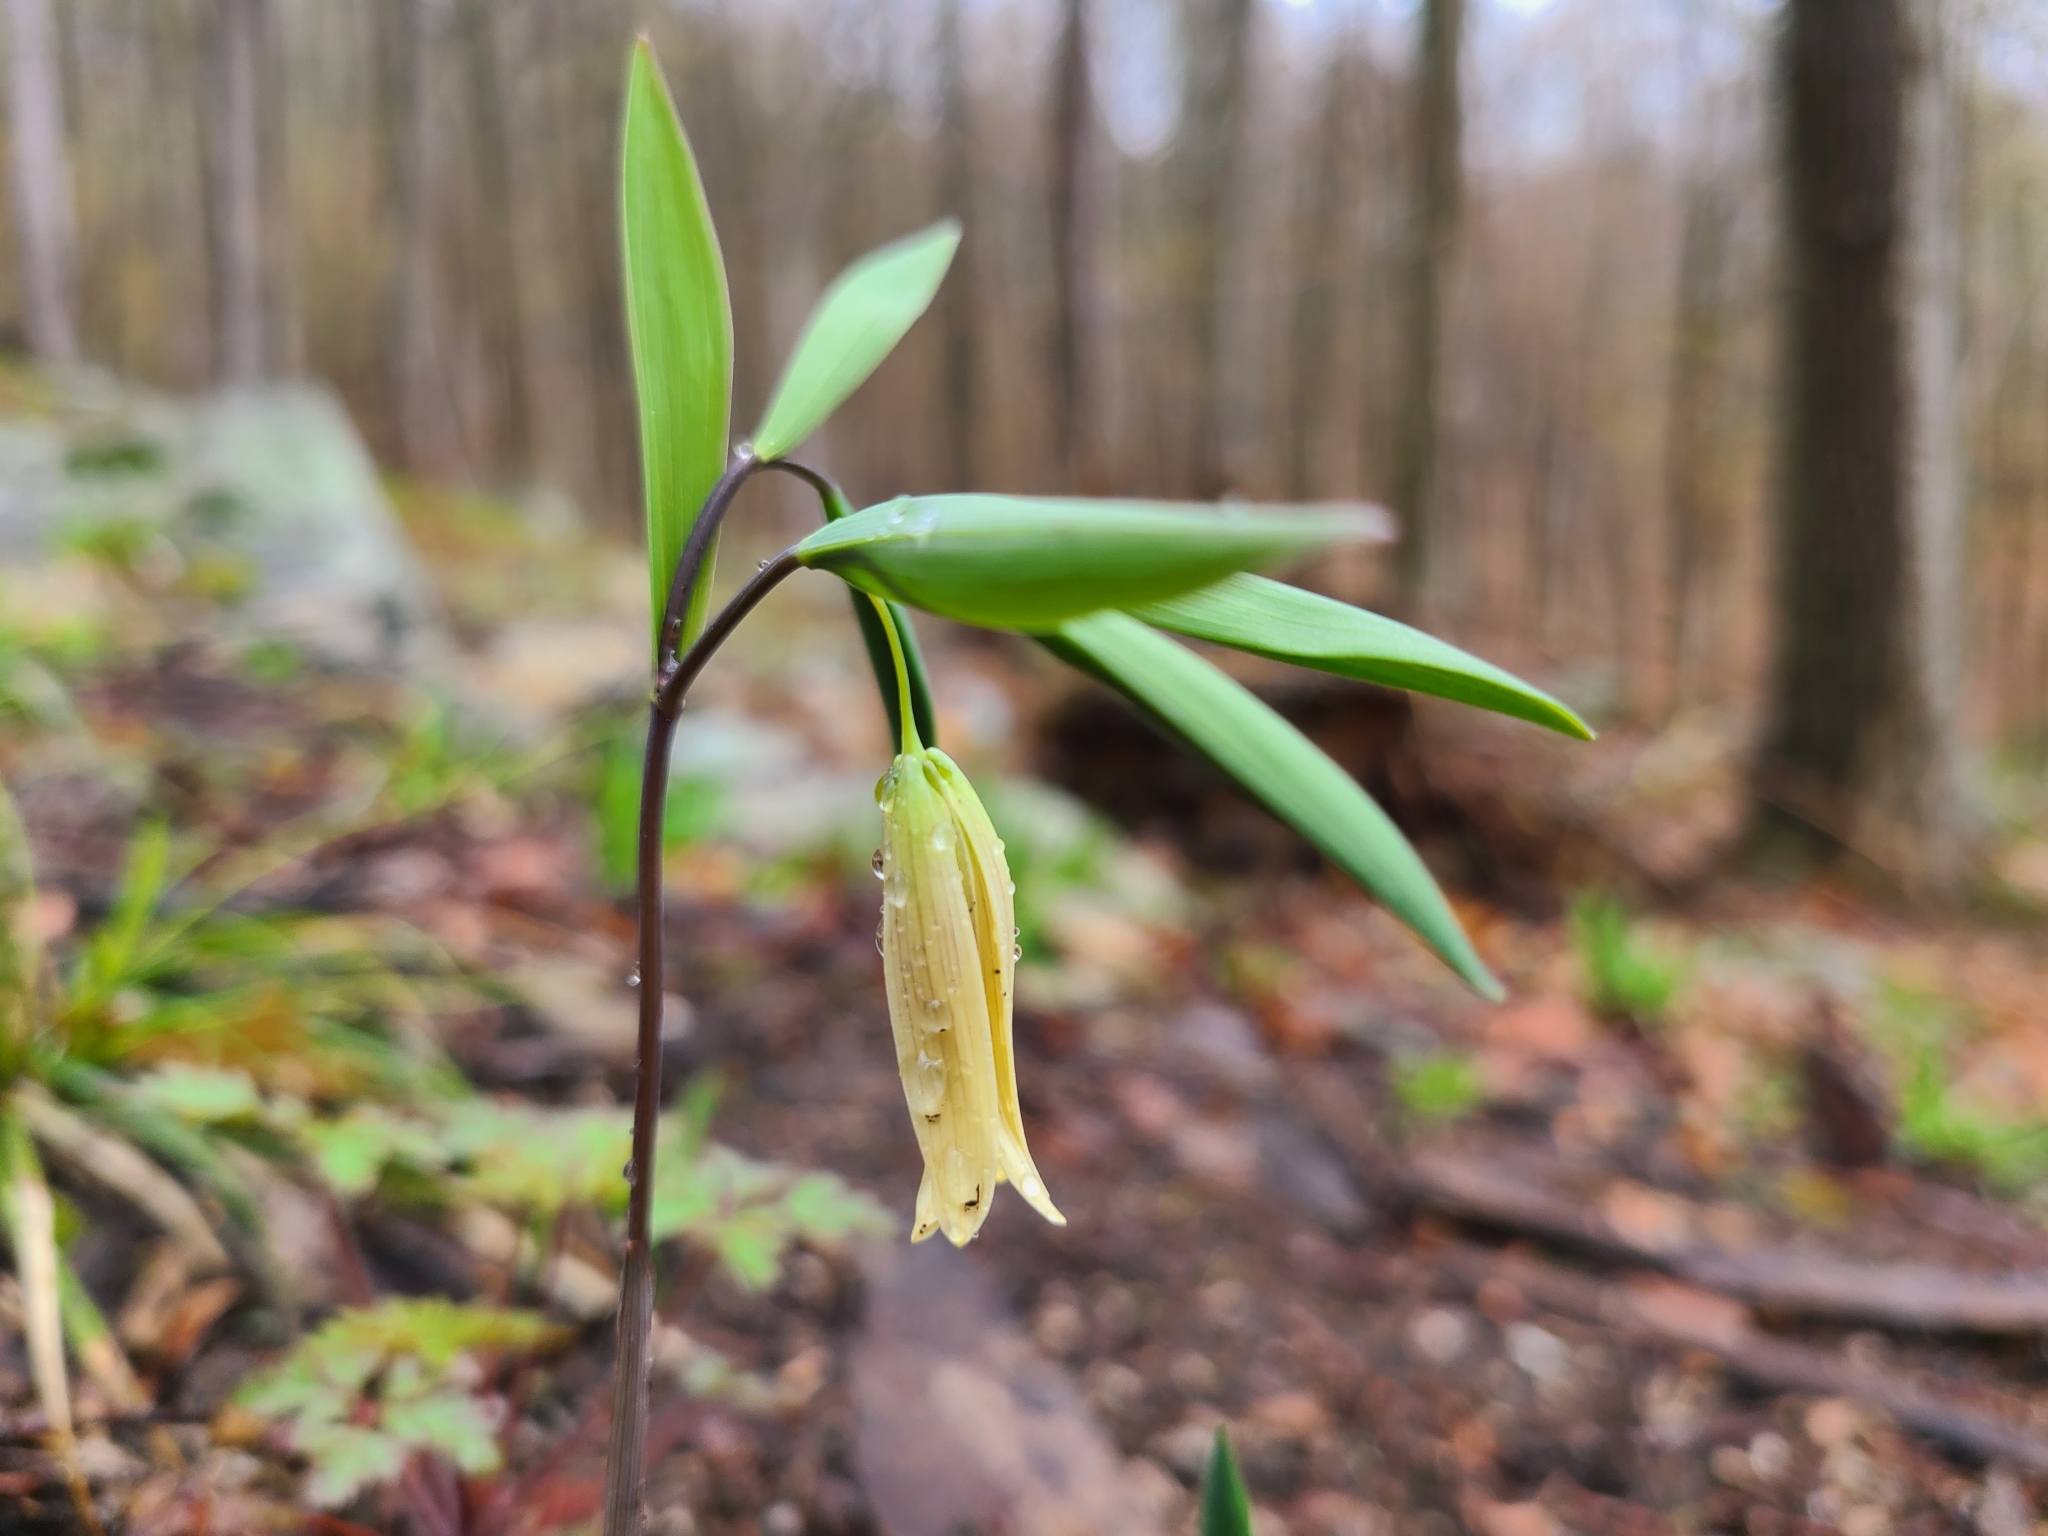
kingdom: Plantae
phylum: Tracheophyta
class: Liliopsida
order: Liliales
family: Colchicaceae
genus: Uvularia
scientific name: Uvularia sessilifolia
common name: Straw-lily
